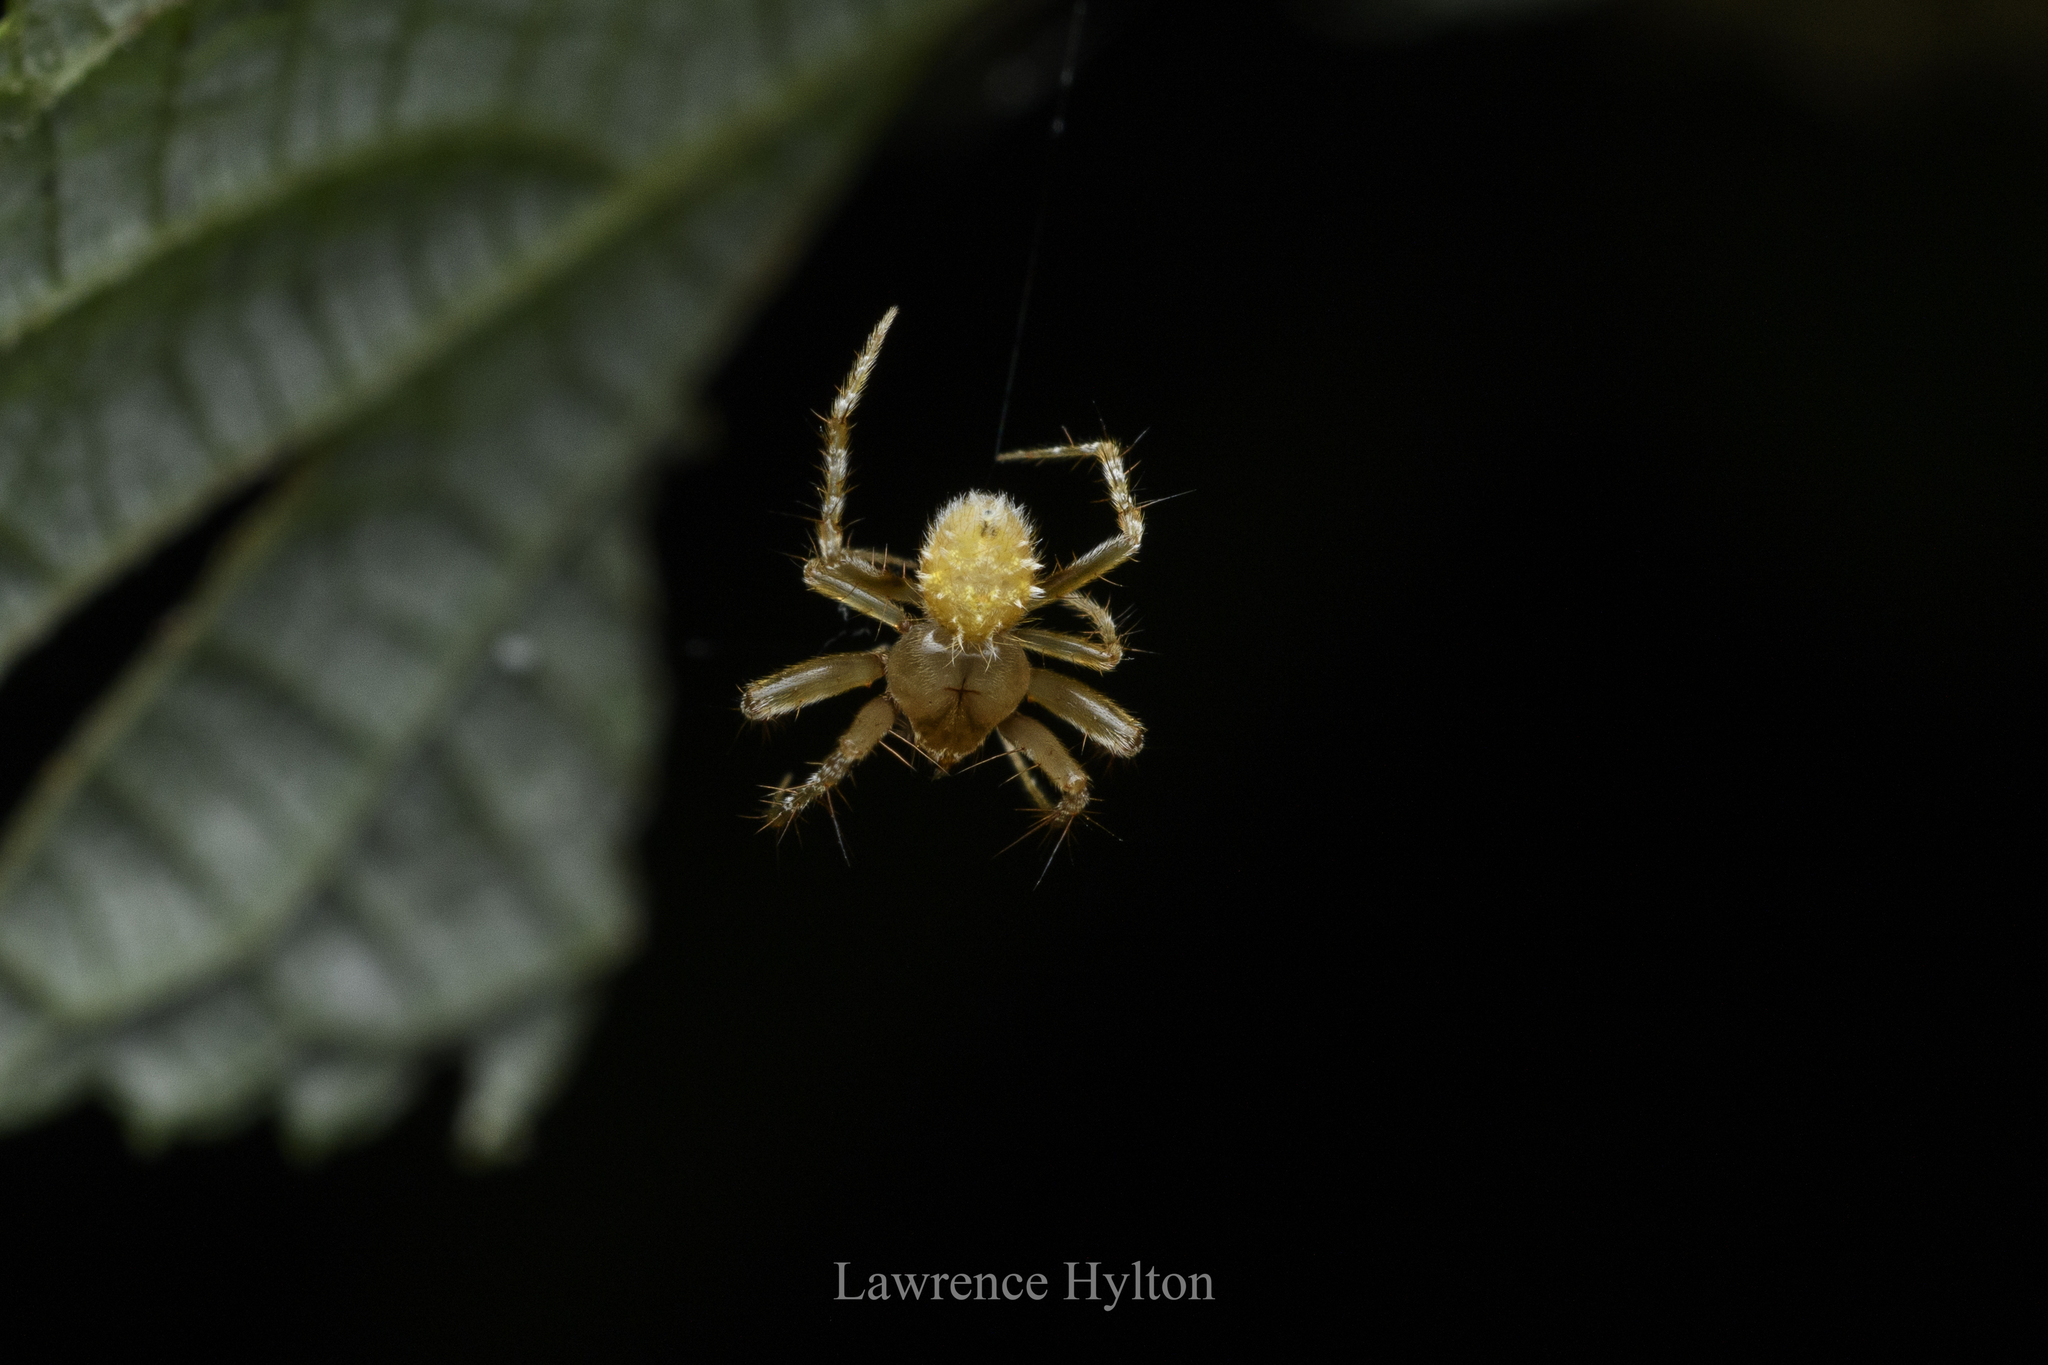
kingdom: Animalia
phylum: Arthropoda
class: Arachnida
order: Araneae
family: Araneidae
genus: Eriovixia
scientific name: Eriovixia laglaizei
